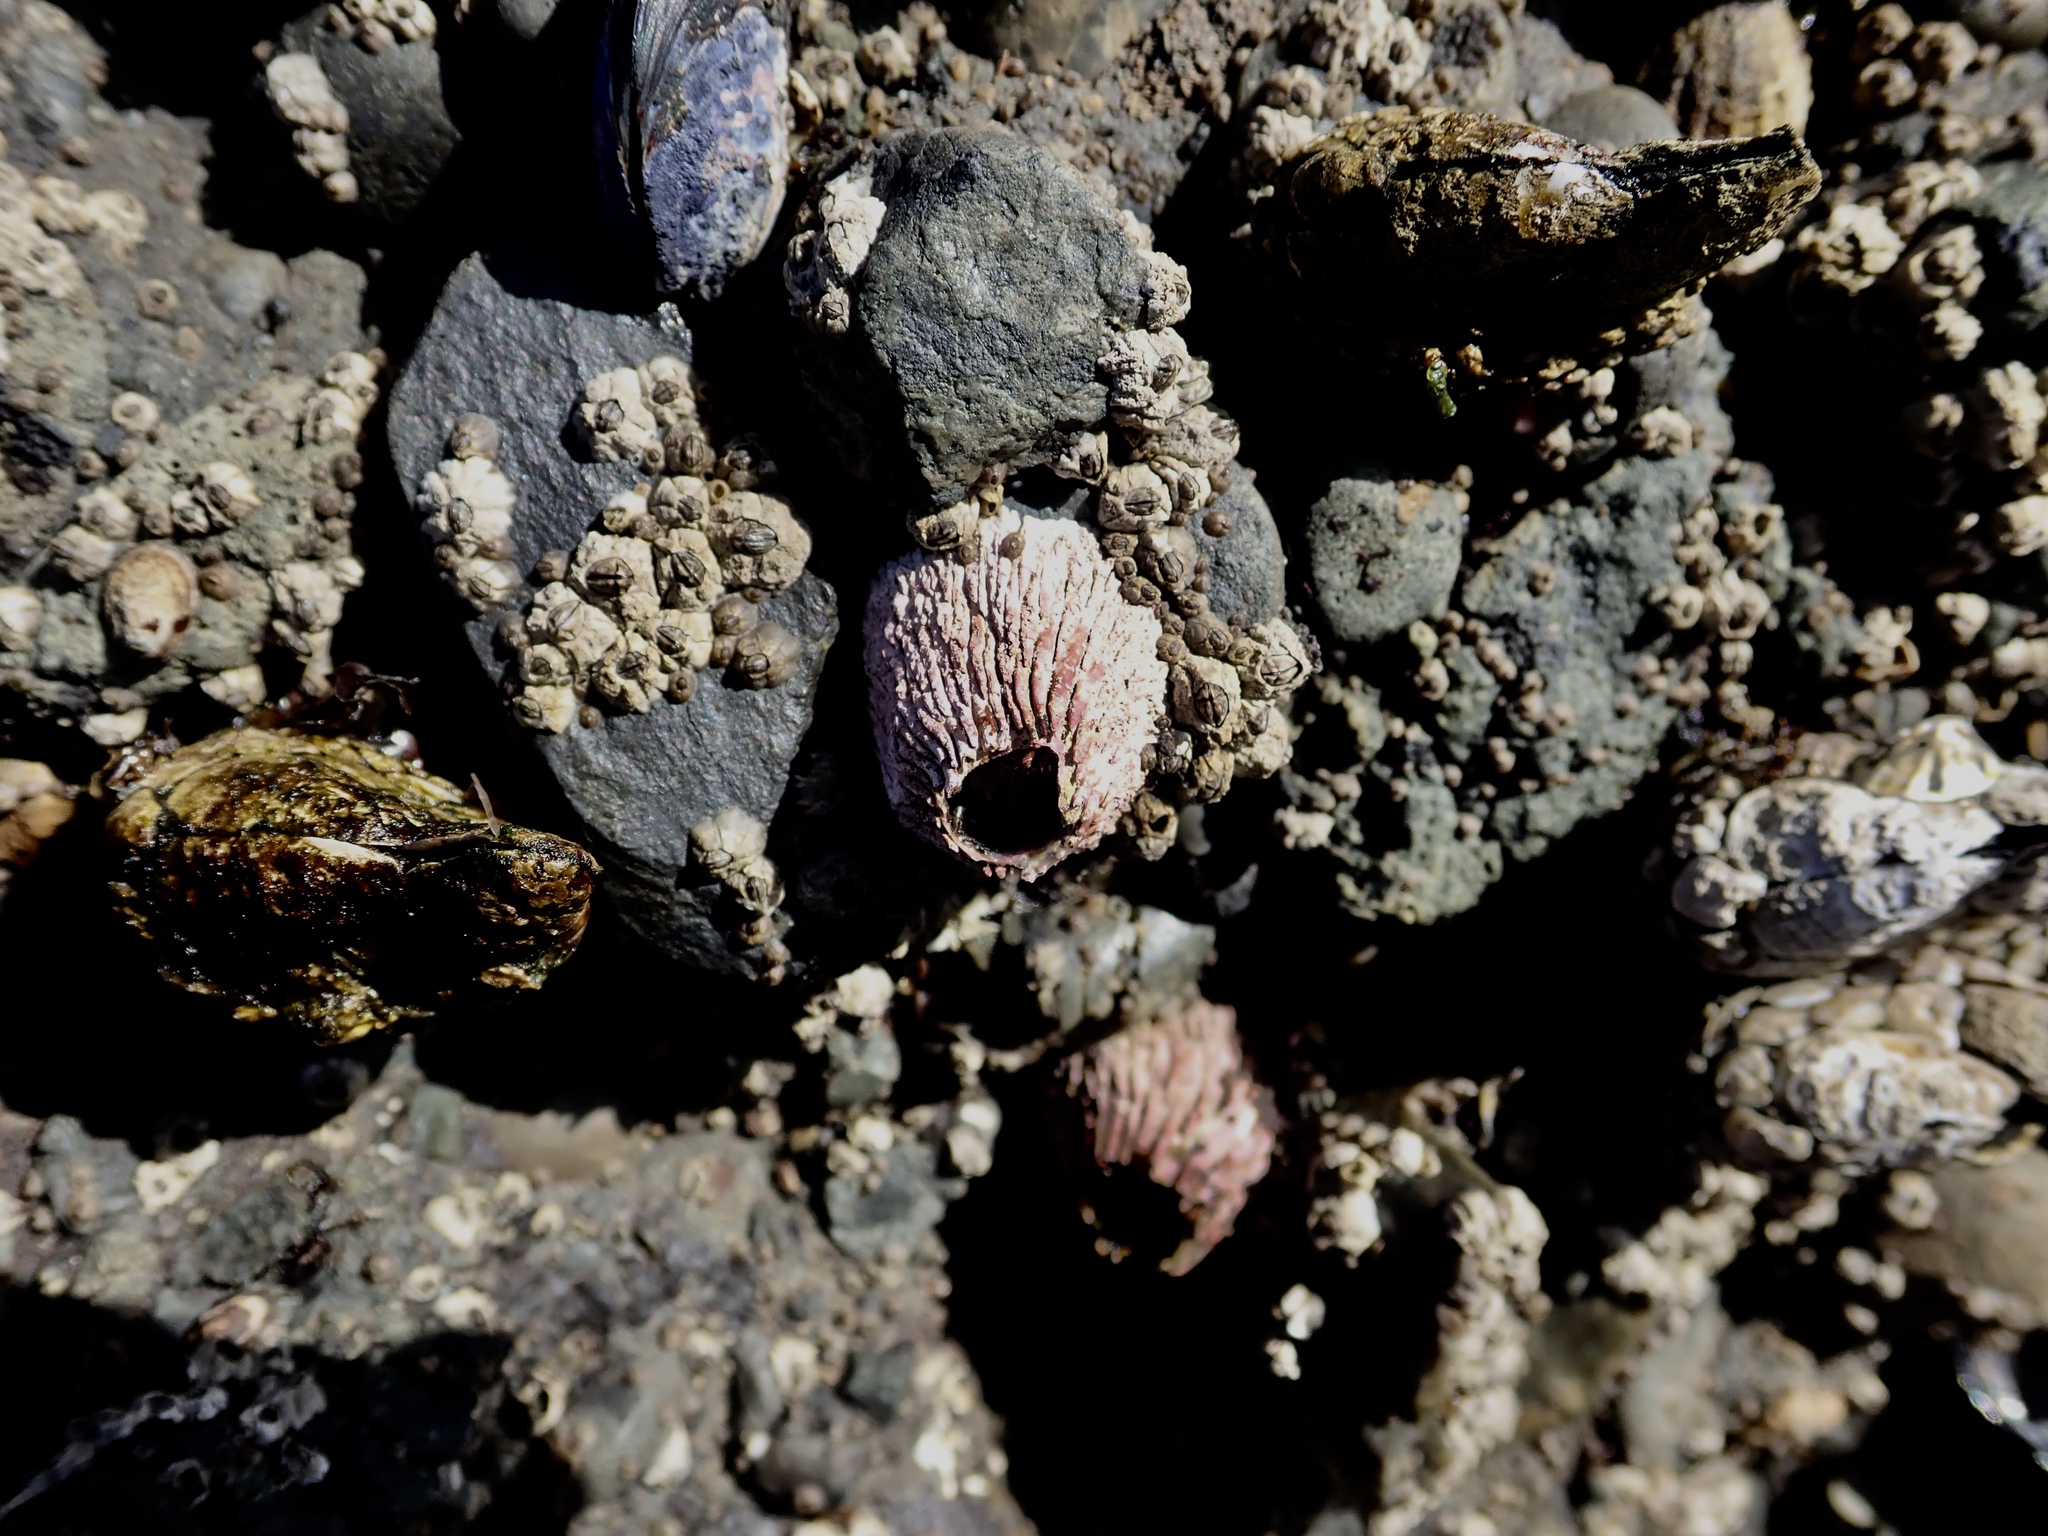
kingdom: Animalia
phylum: Arthropoda
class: Maxillopoda
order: Sessilia
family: Tetraclitidae
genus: Tetraclita
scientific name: Tetraclita rubescens
